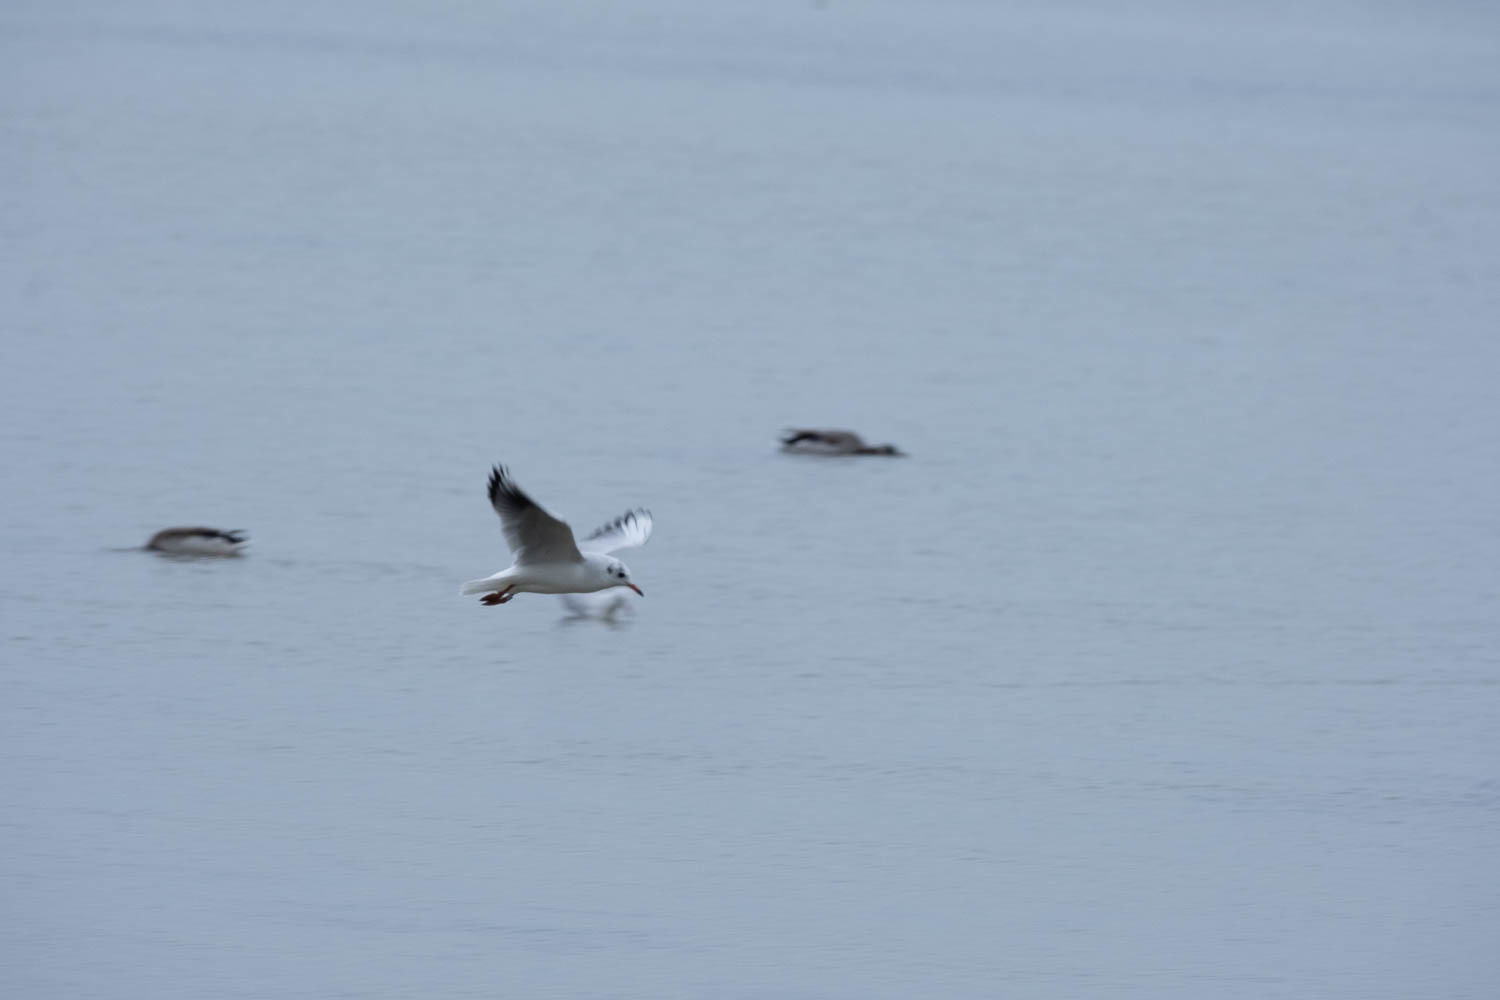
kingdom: Animalia
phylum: Chordata
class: Aves
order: Charadriiformes
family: Laridae
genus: Chroicocephalus
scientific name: Chroicocephalus ridibundus
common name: Black-headed gull
